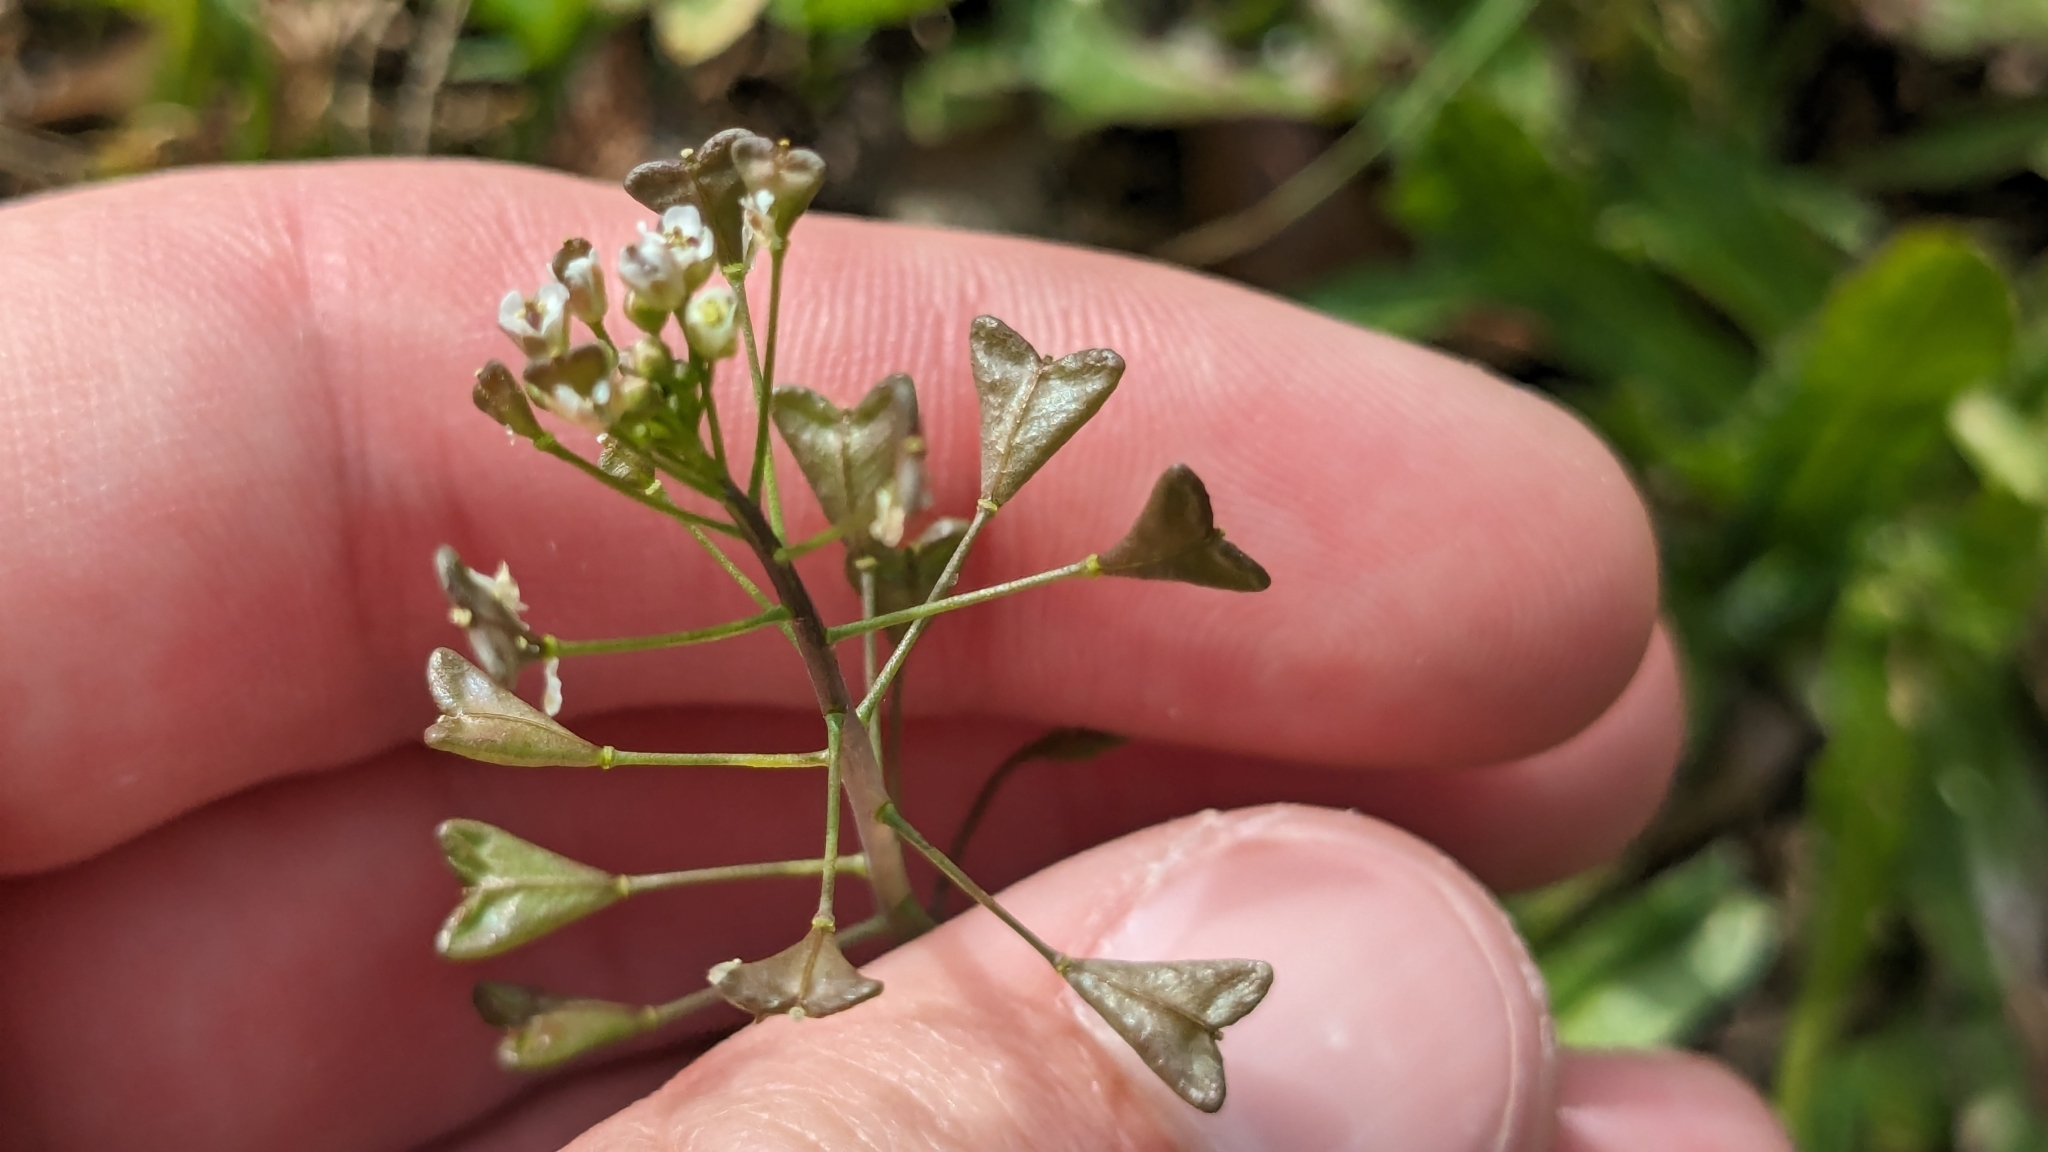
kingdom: Plantae
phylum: Tracheophyta
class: Magnoliopsida
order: Brassicales
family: Brassicaceae
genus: Capsella
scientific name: Capsella bursa-pastoris
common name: Shepherd's purse
